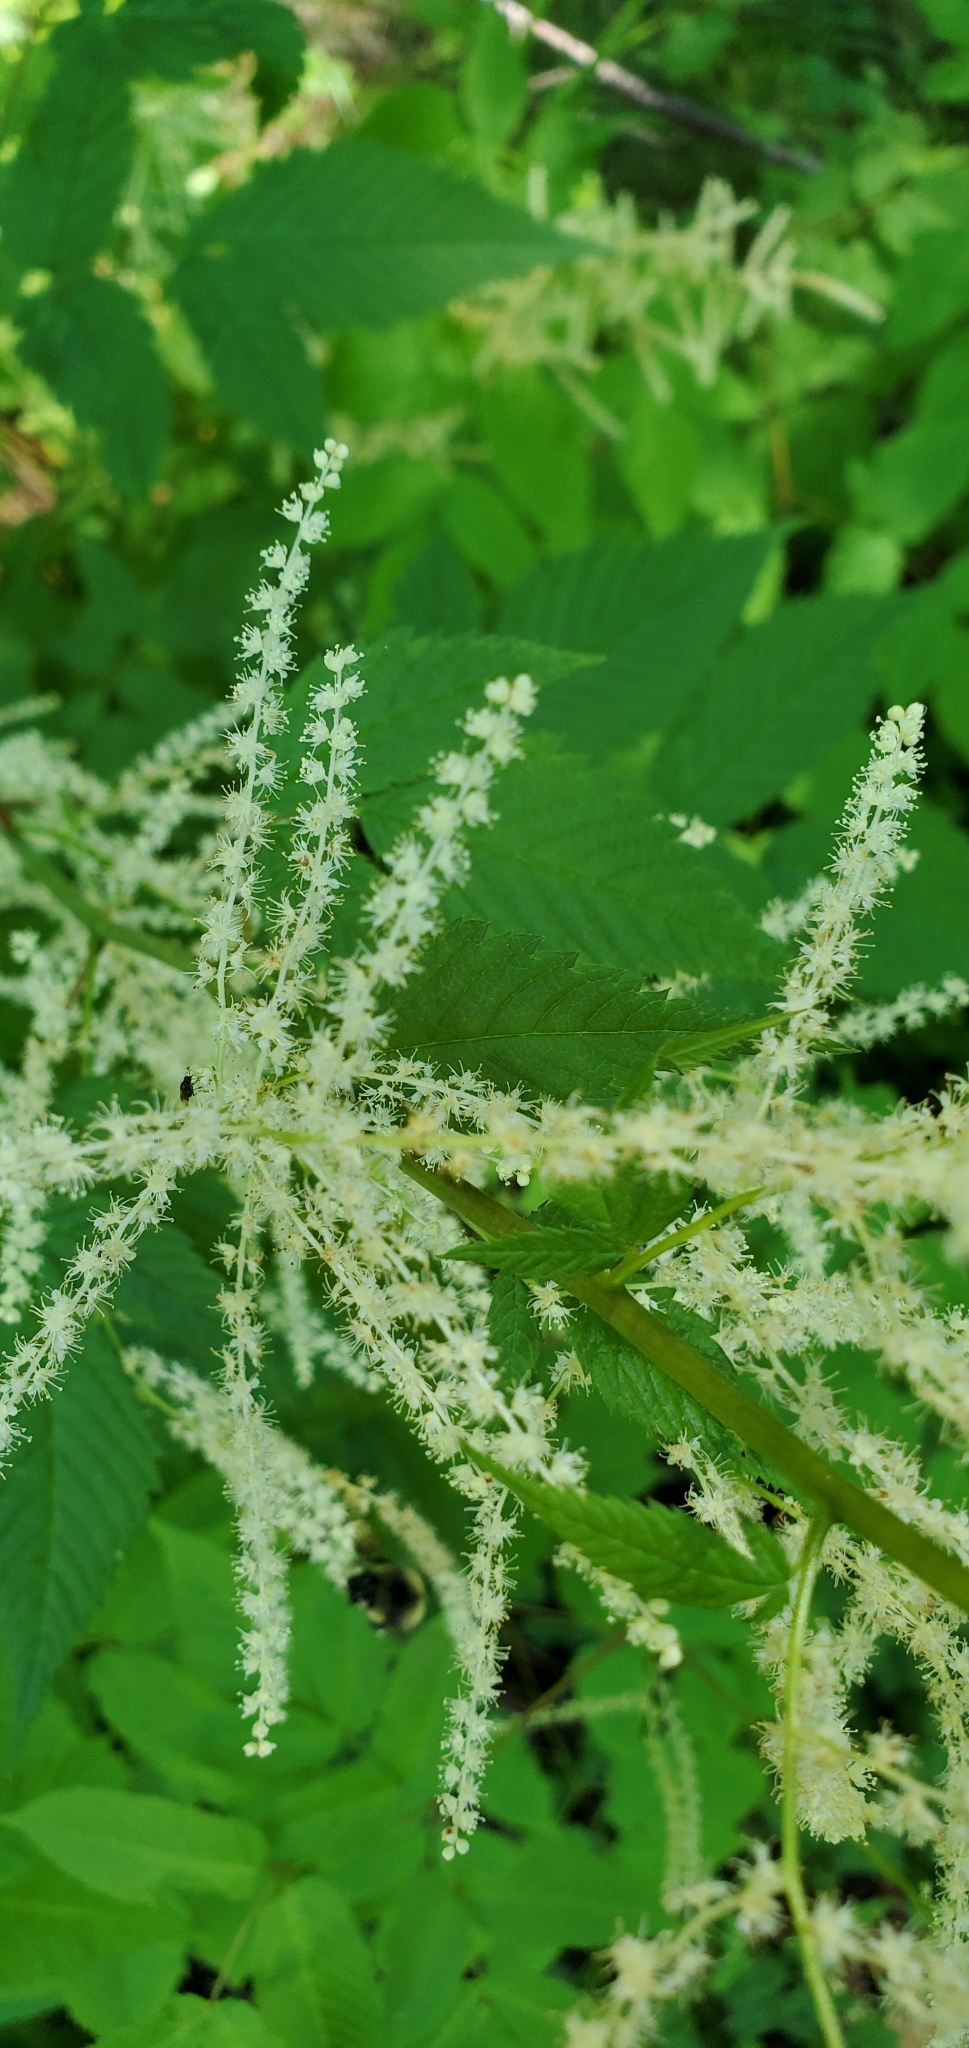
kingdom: Plantae
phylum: Tracheophyta
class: Magnoliopsida
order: Rosales
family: Rosaceae
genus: Aruncus
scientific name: Aruncus dioicus
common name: Buck's-beard
